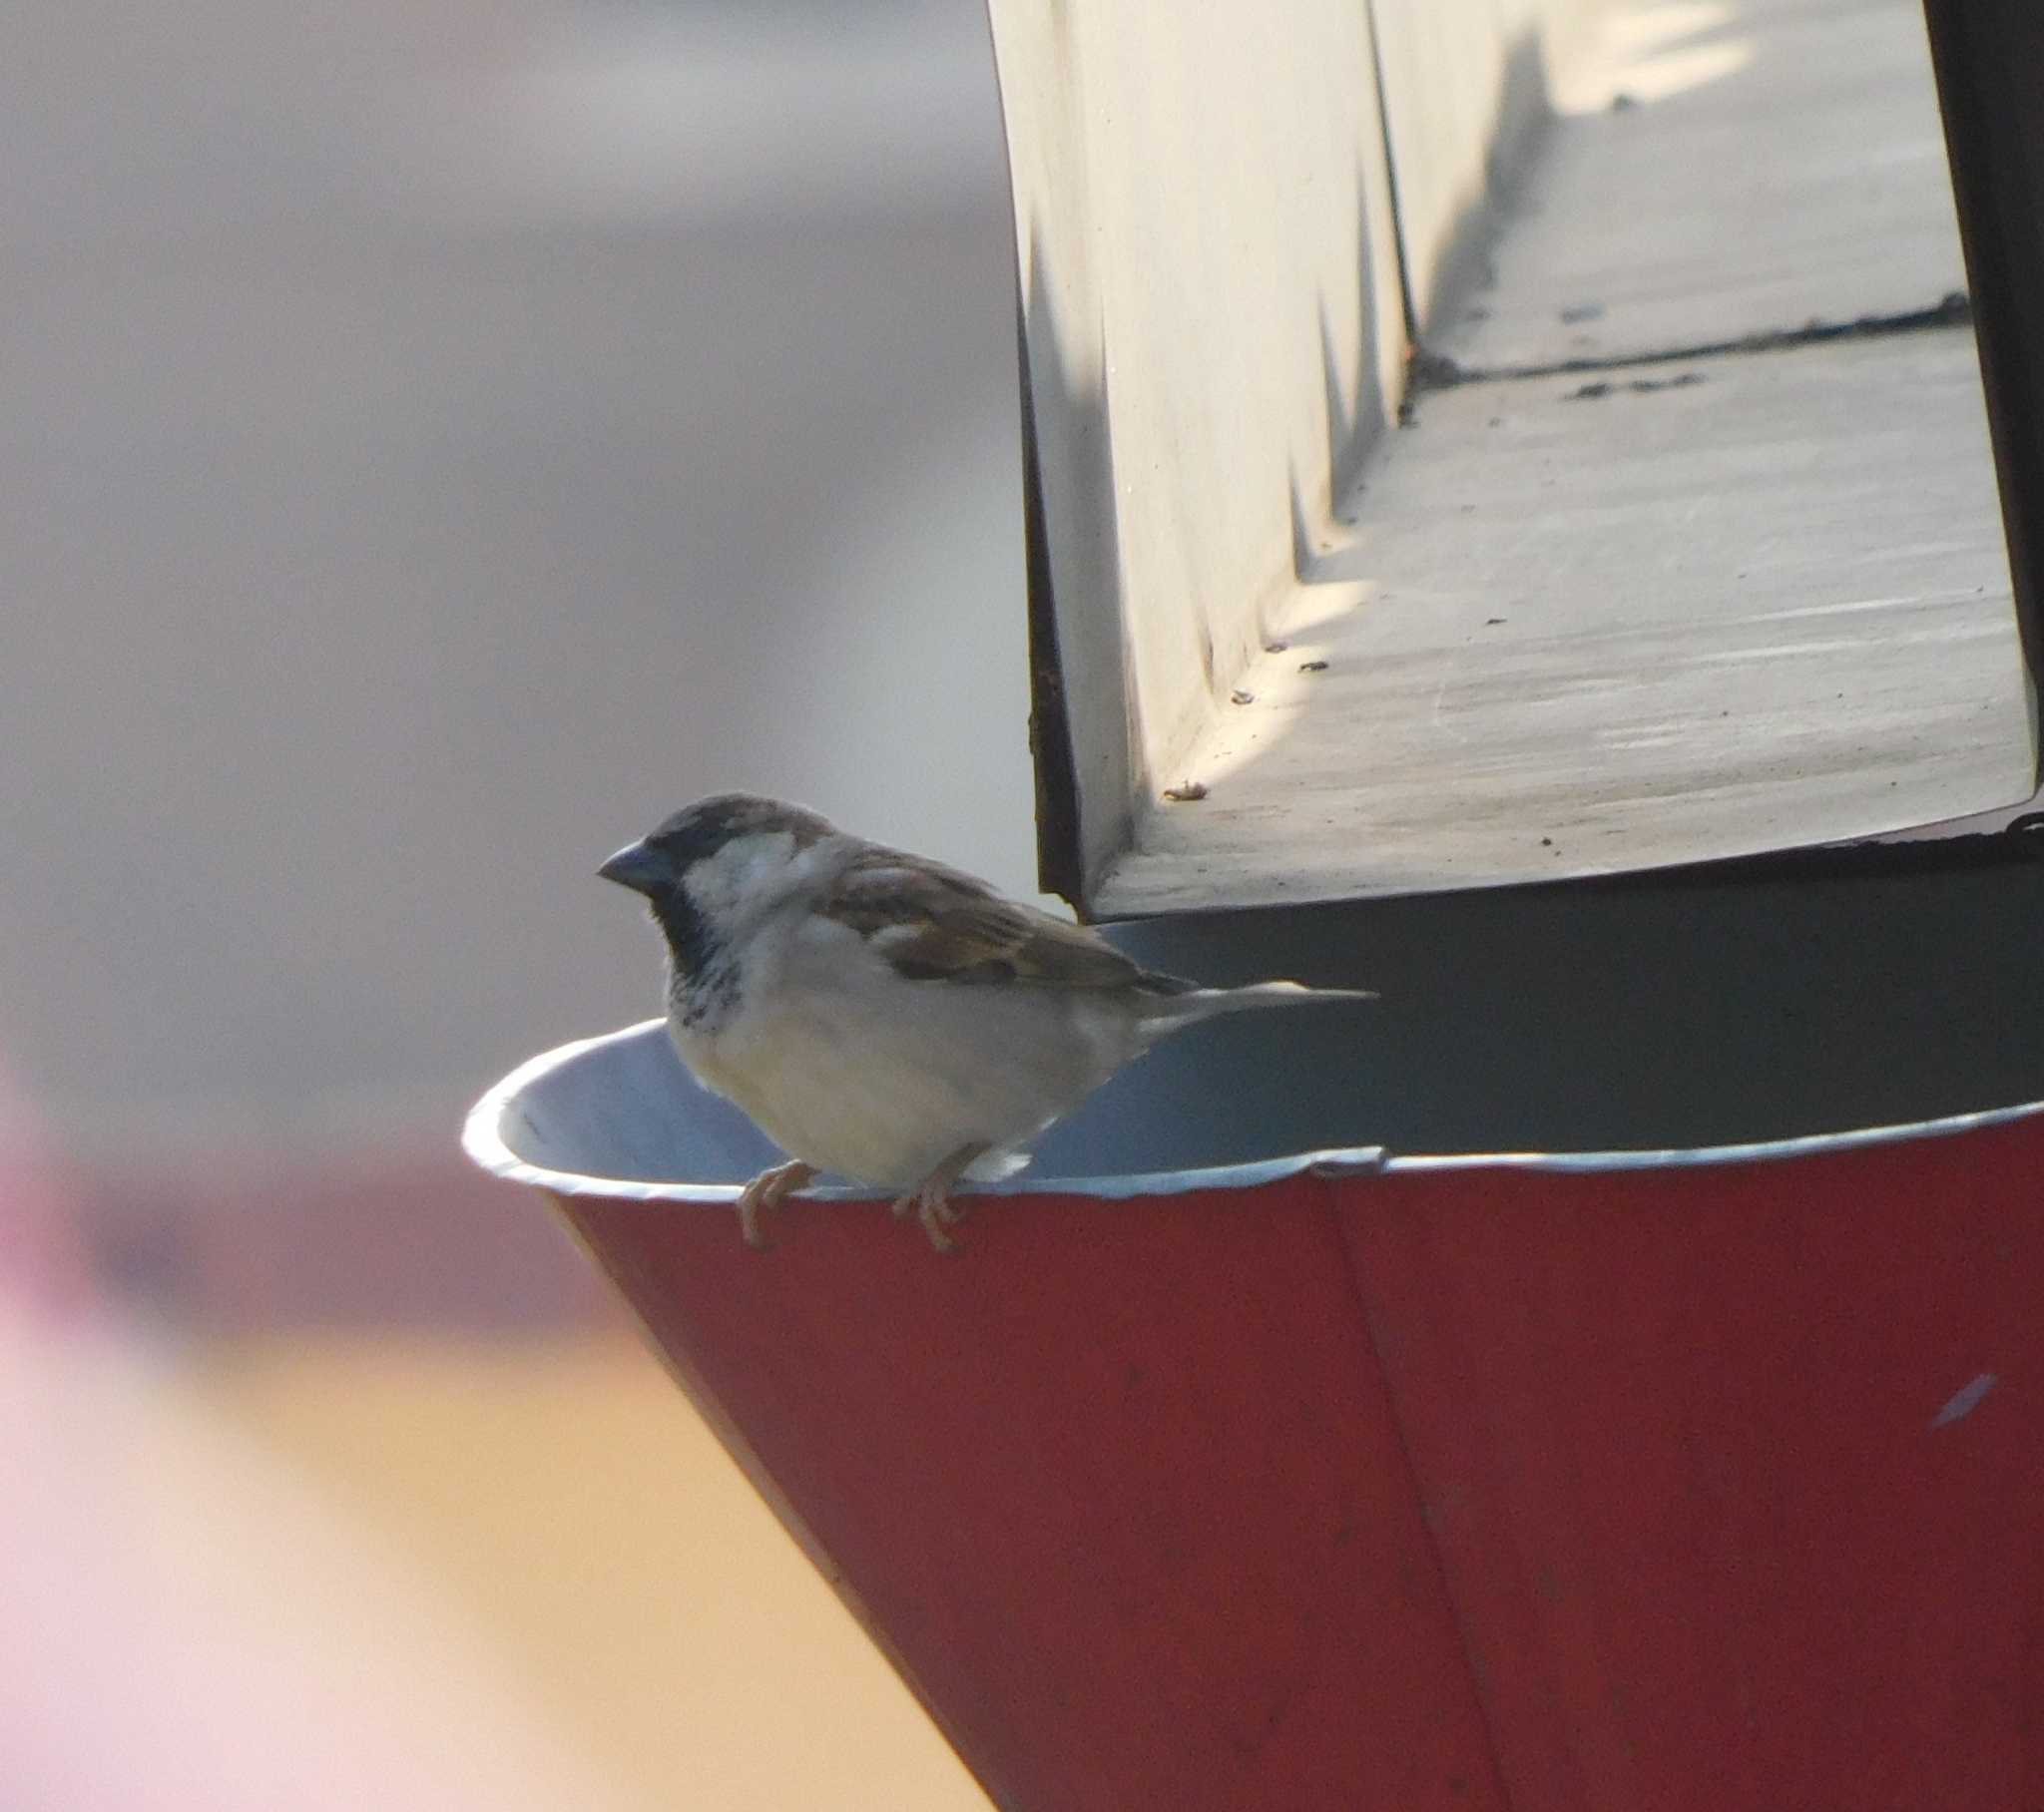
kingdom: Animalia
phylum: Chordata
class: Aves
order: Passeriformes
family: Passeridae
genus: Passer
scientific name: Passer domesticus
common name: House sparrow
